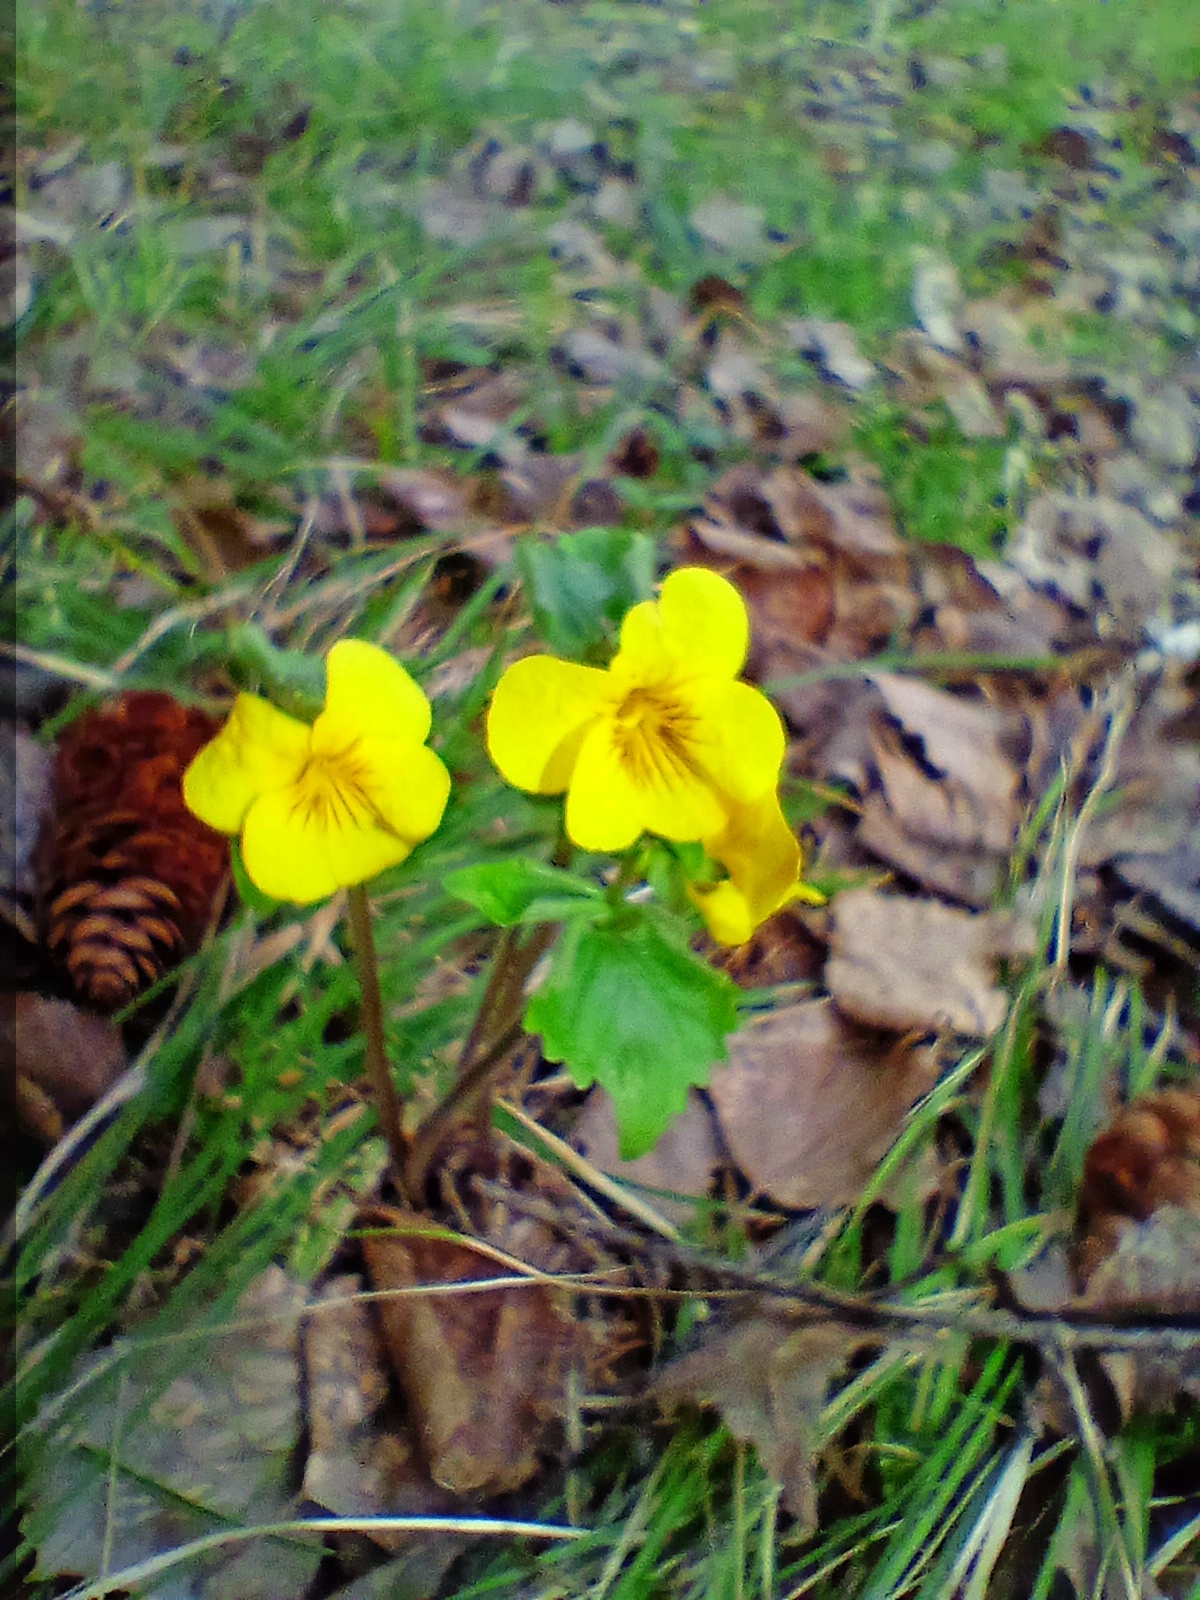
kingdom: Plantae
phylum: Tracheophyta
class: Magnoliopsida
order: Malpighiales
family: Violaceae
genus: Viola
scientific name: Viola uniflora
